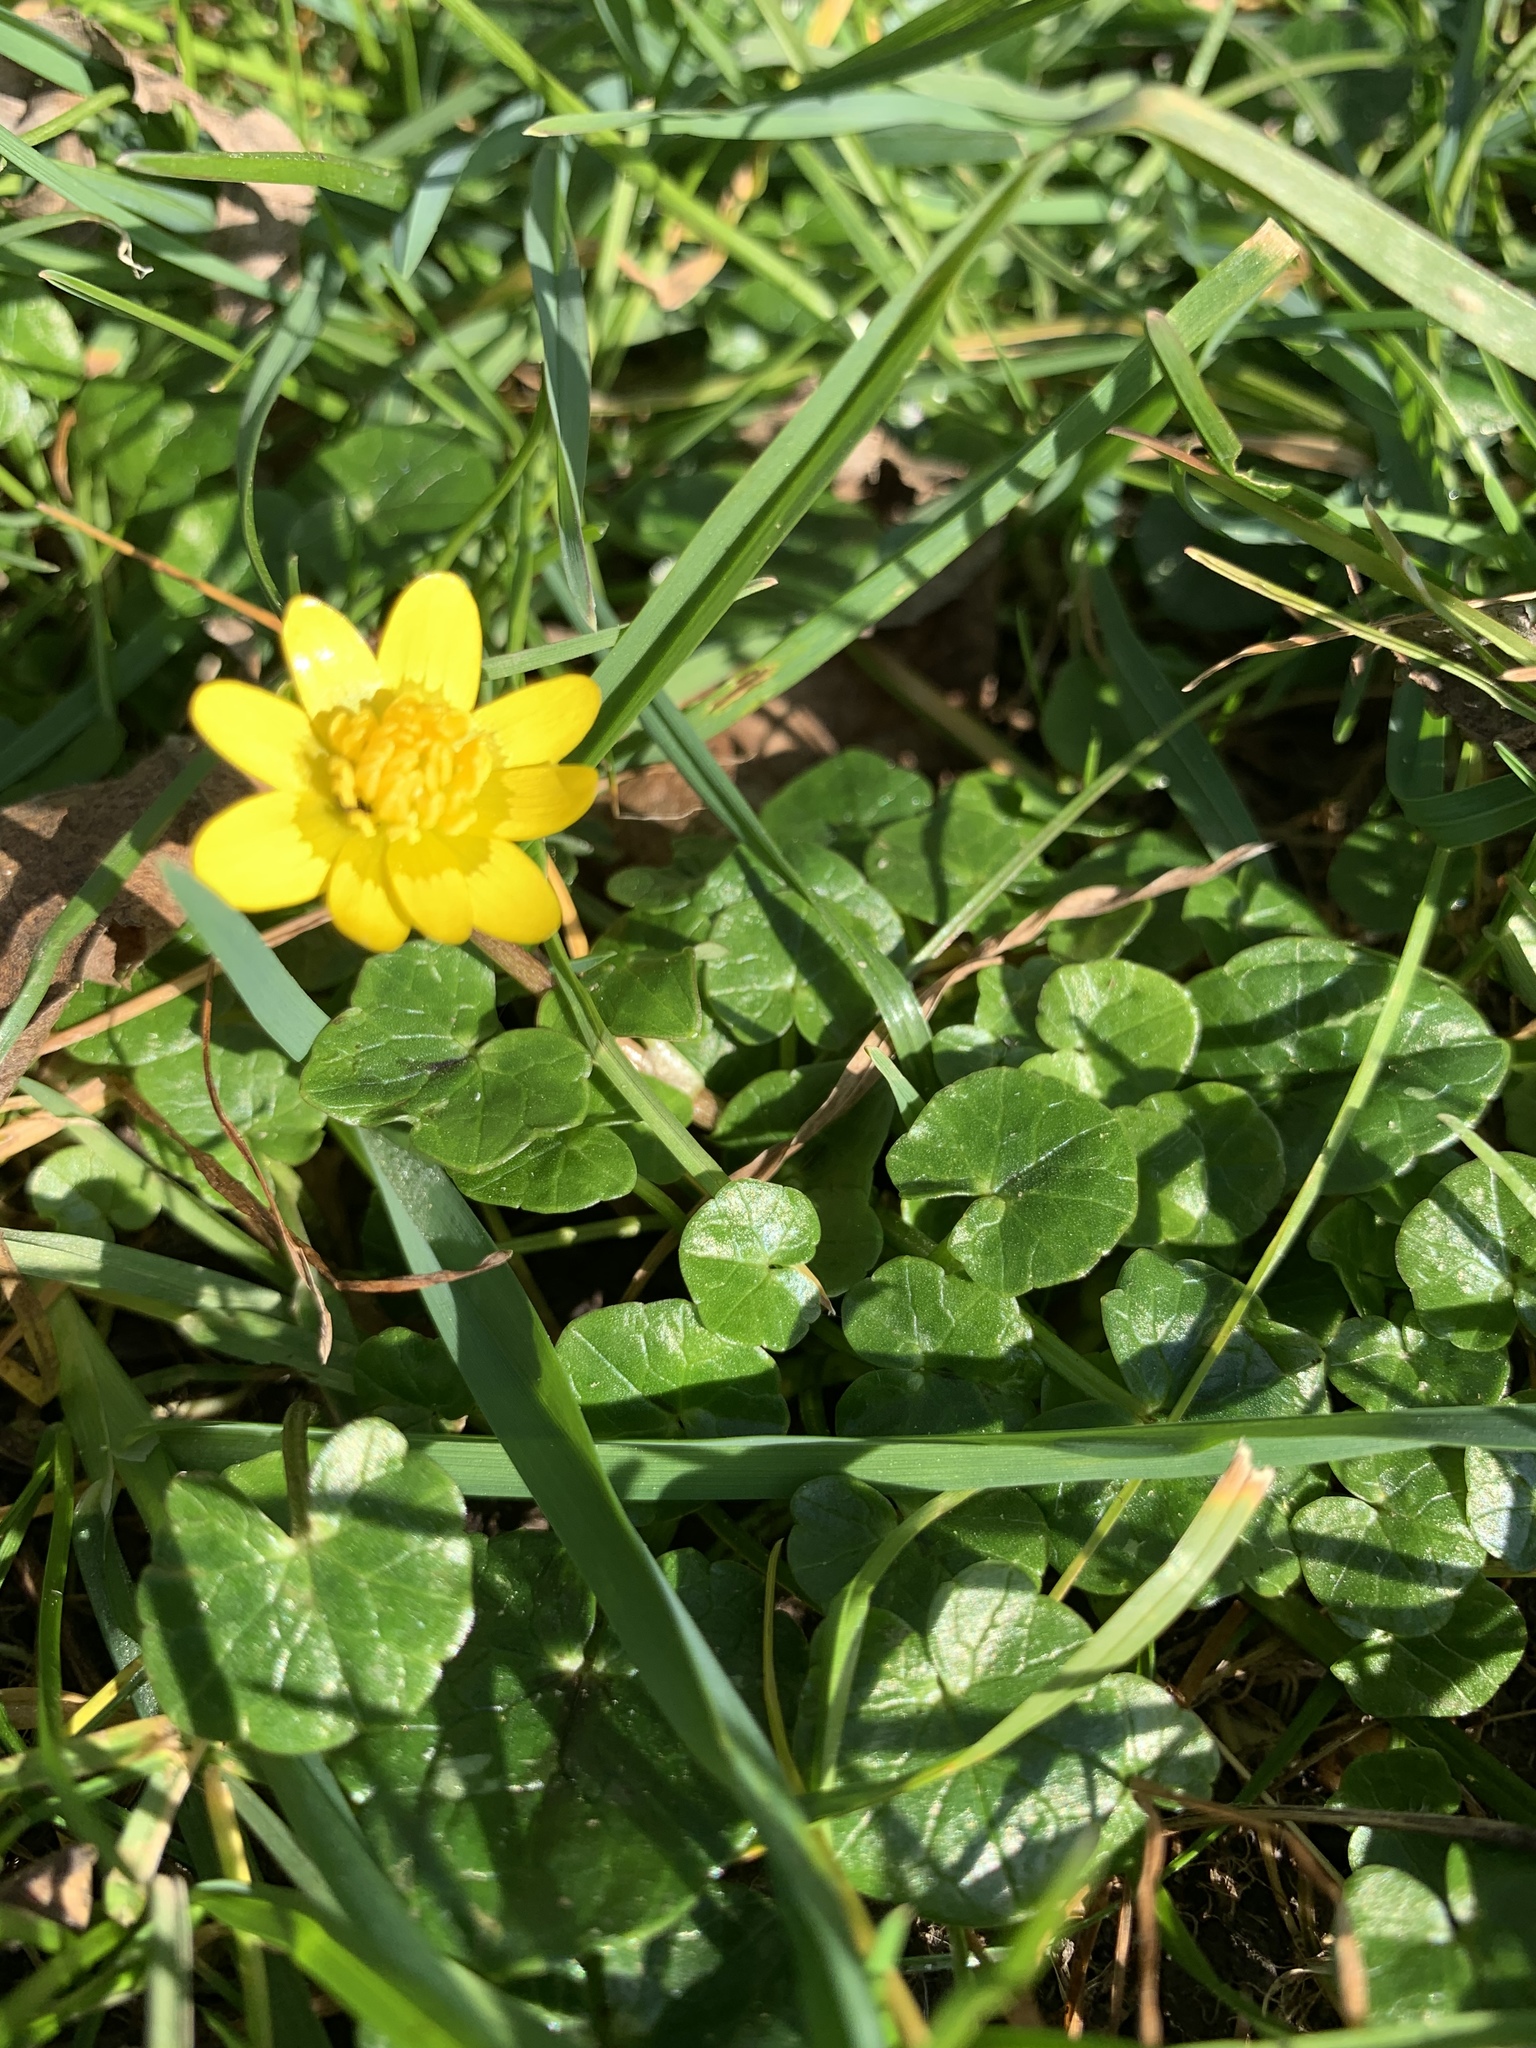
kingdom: Plantae
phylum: Tracheophyta
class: Magnoliopsida
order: Ranunculales
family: Ranunculaceae
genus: Ficaria
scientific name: Ficaria verna
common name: Lesser celandine
